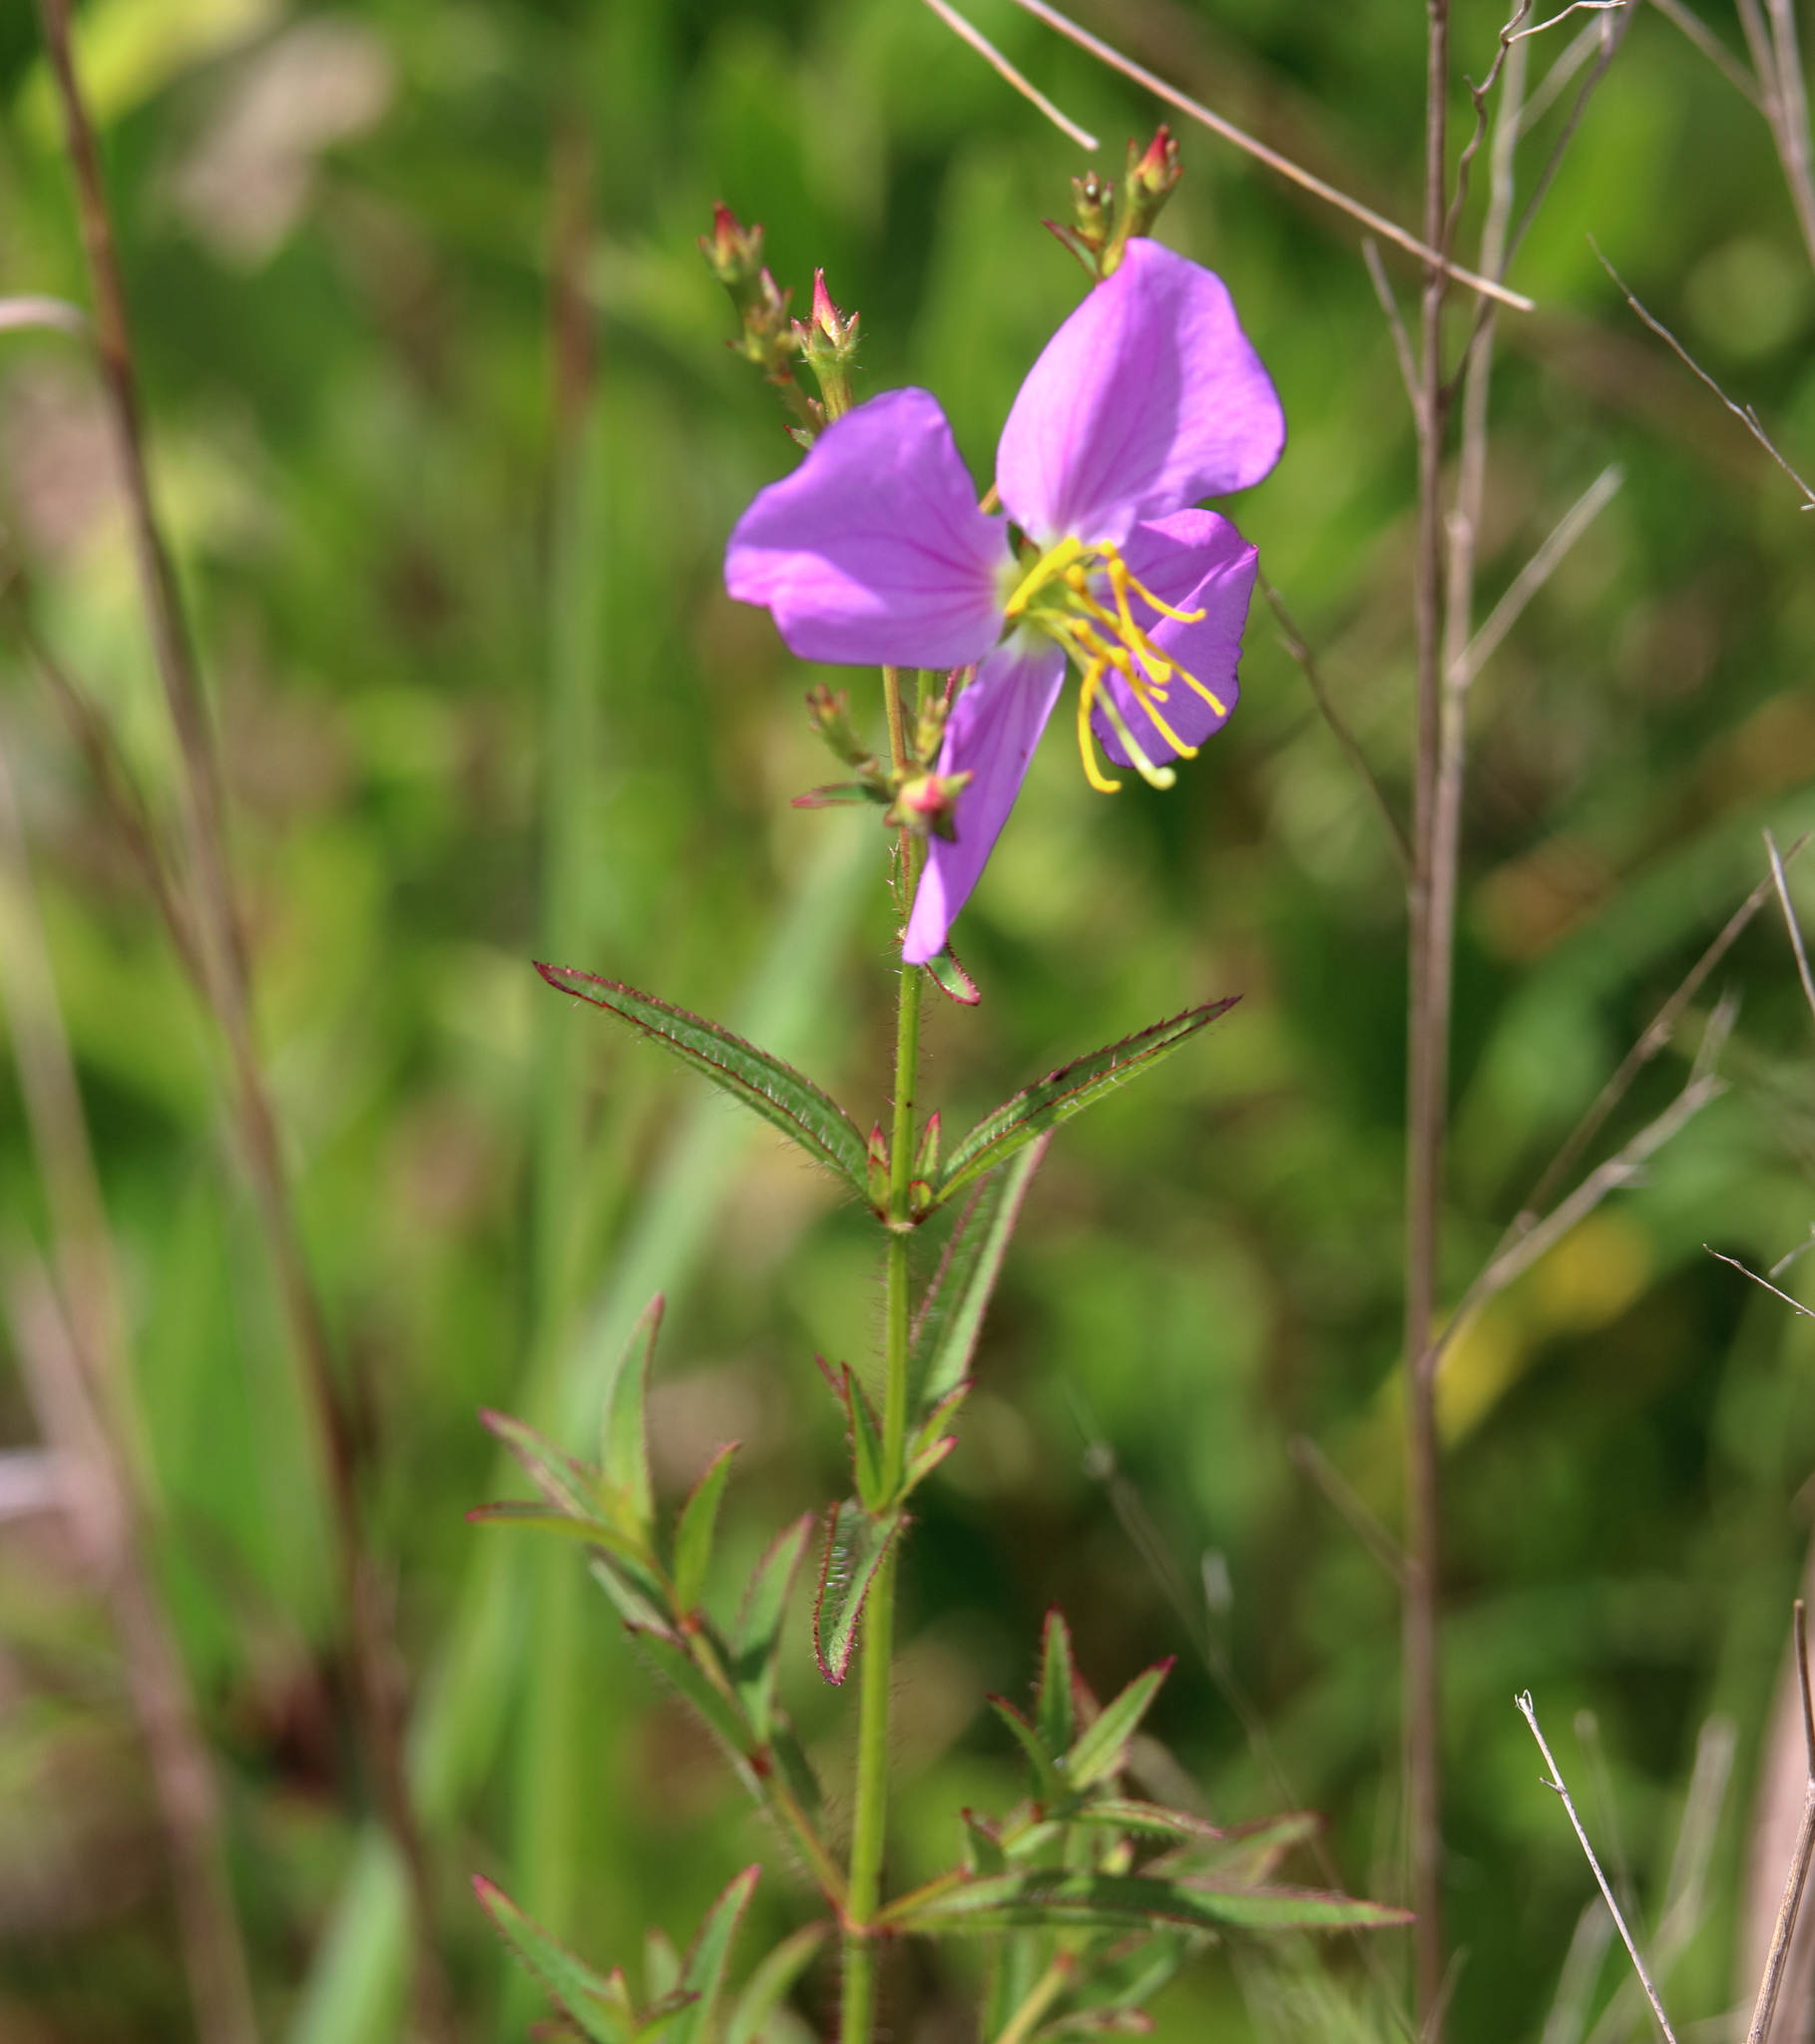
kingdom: Plantae
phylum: Tracheophyta
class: Magnoliopsida
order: Myrtales
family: Melastomataceae
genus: Rhexia
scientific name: Rhexia cubensis
